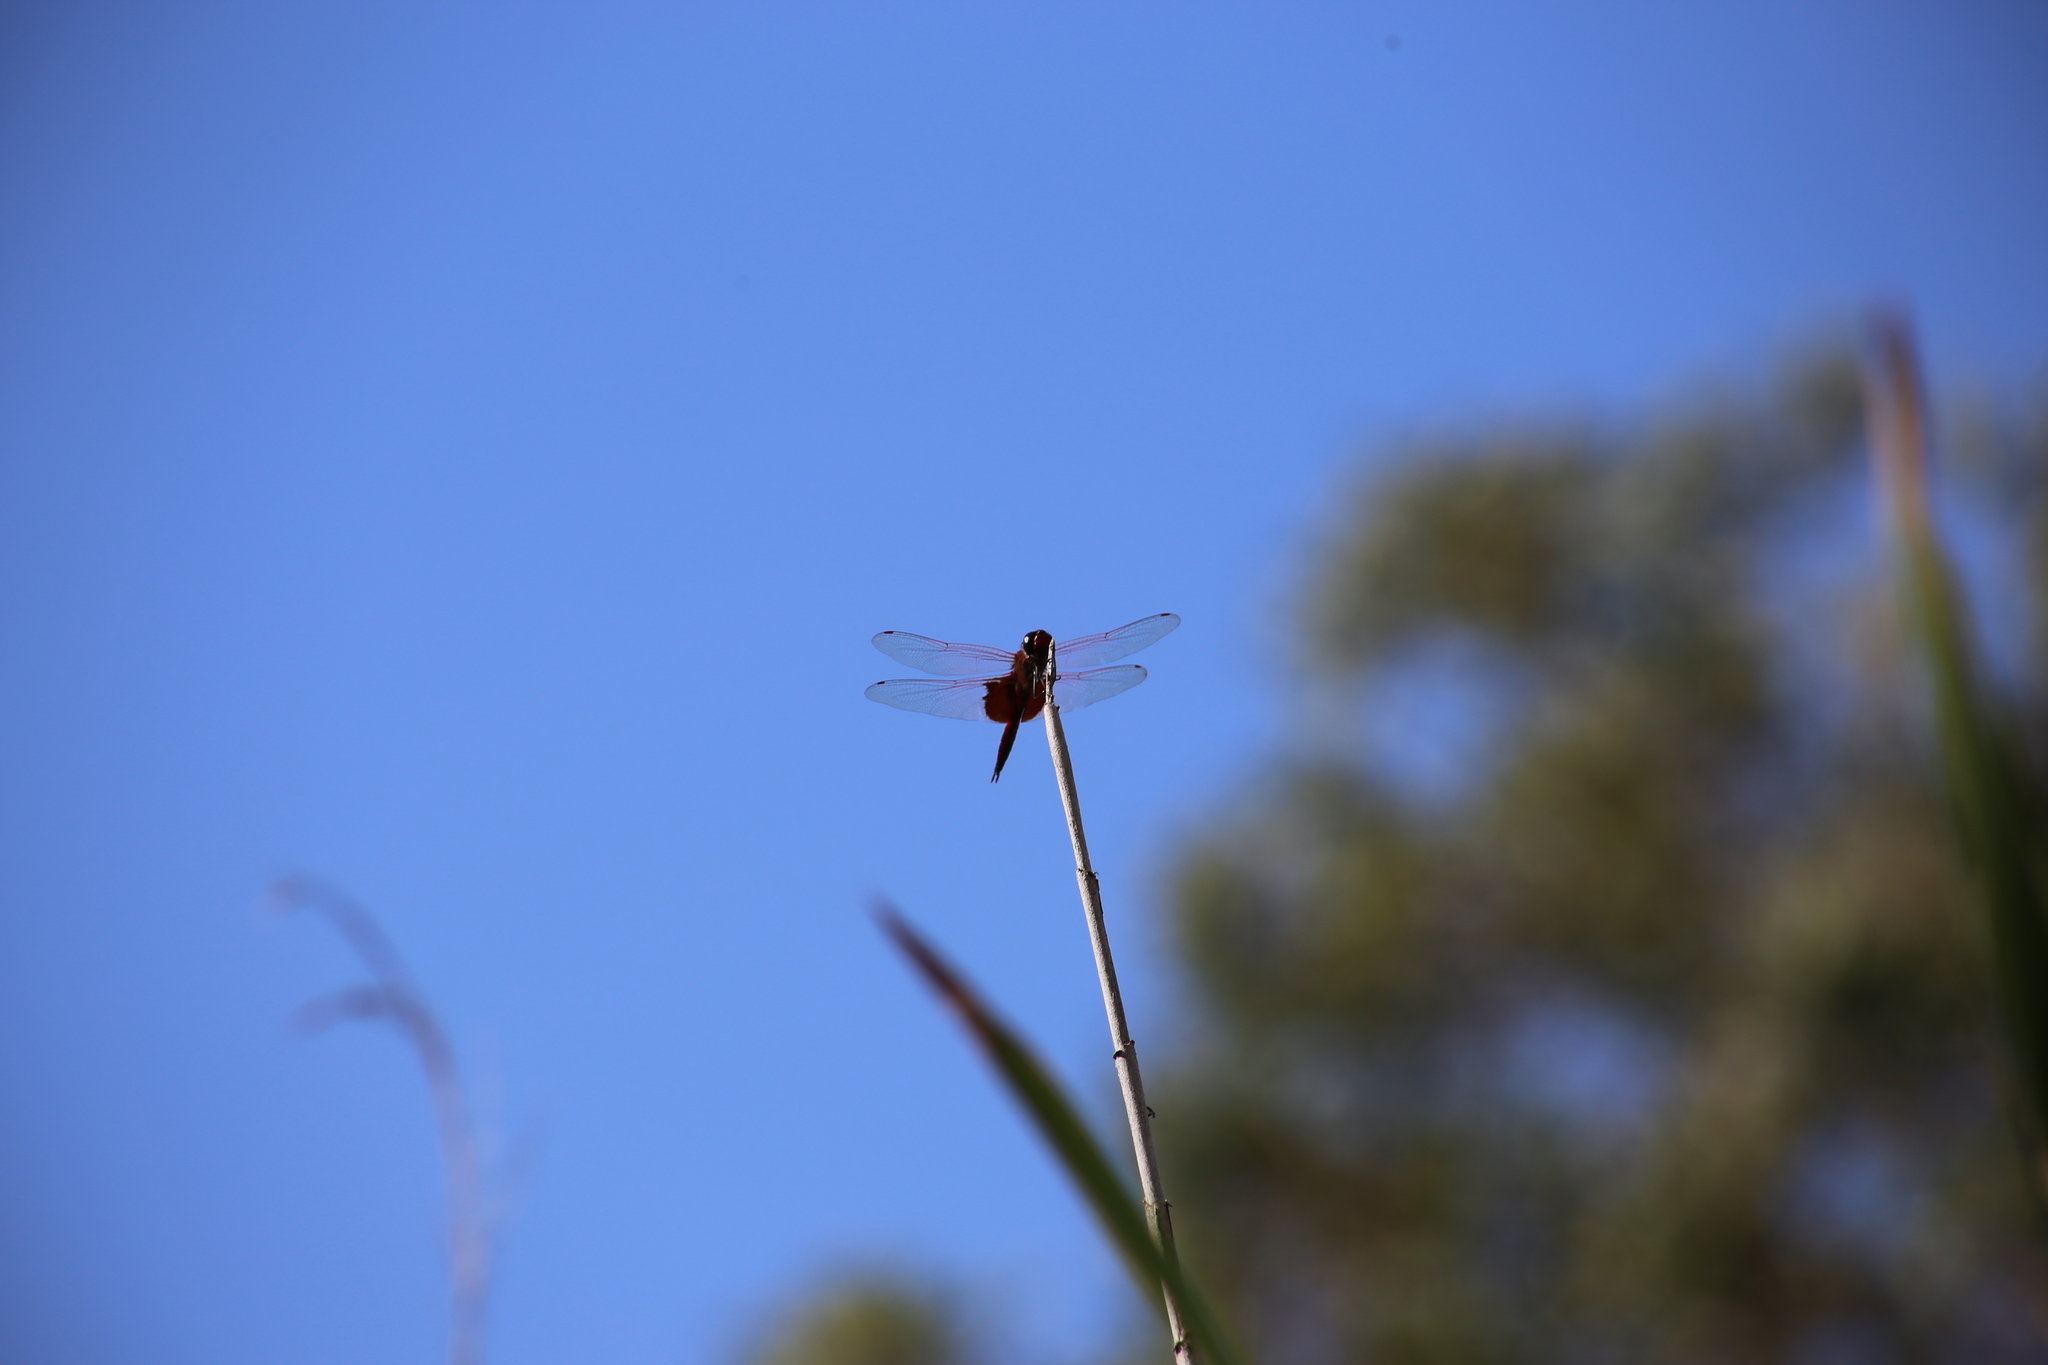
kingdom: Animalia
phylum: Arthropoda
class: Insecta
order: Odonata
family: Libellulidae
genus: Tramea
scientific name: Tramea eurybia
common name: Dune glider
